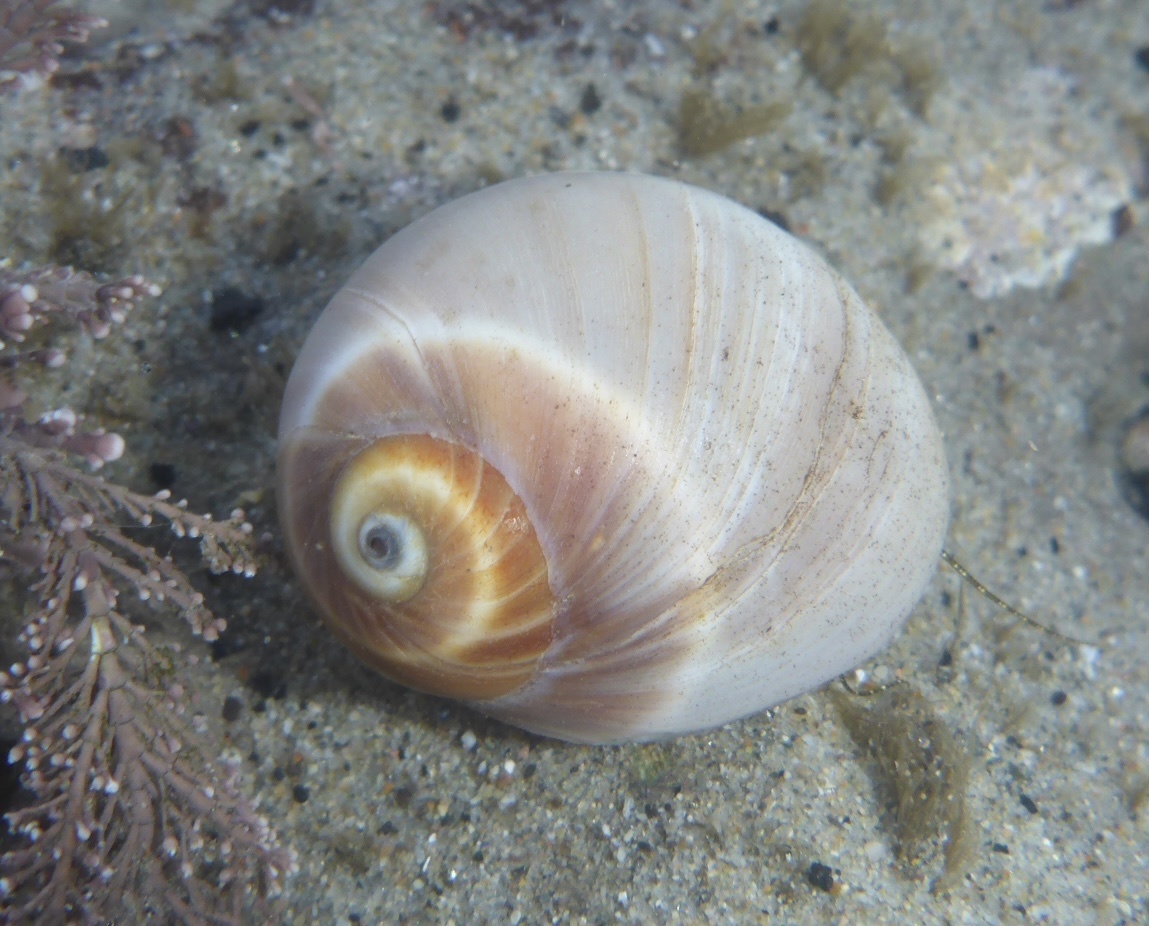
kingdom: Animalia
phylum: Mollusca
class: Gastropoda
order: Littorinimorpha
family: Naticidae
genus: Glossaulax
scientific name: Glossaulax reclusiana
